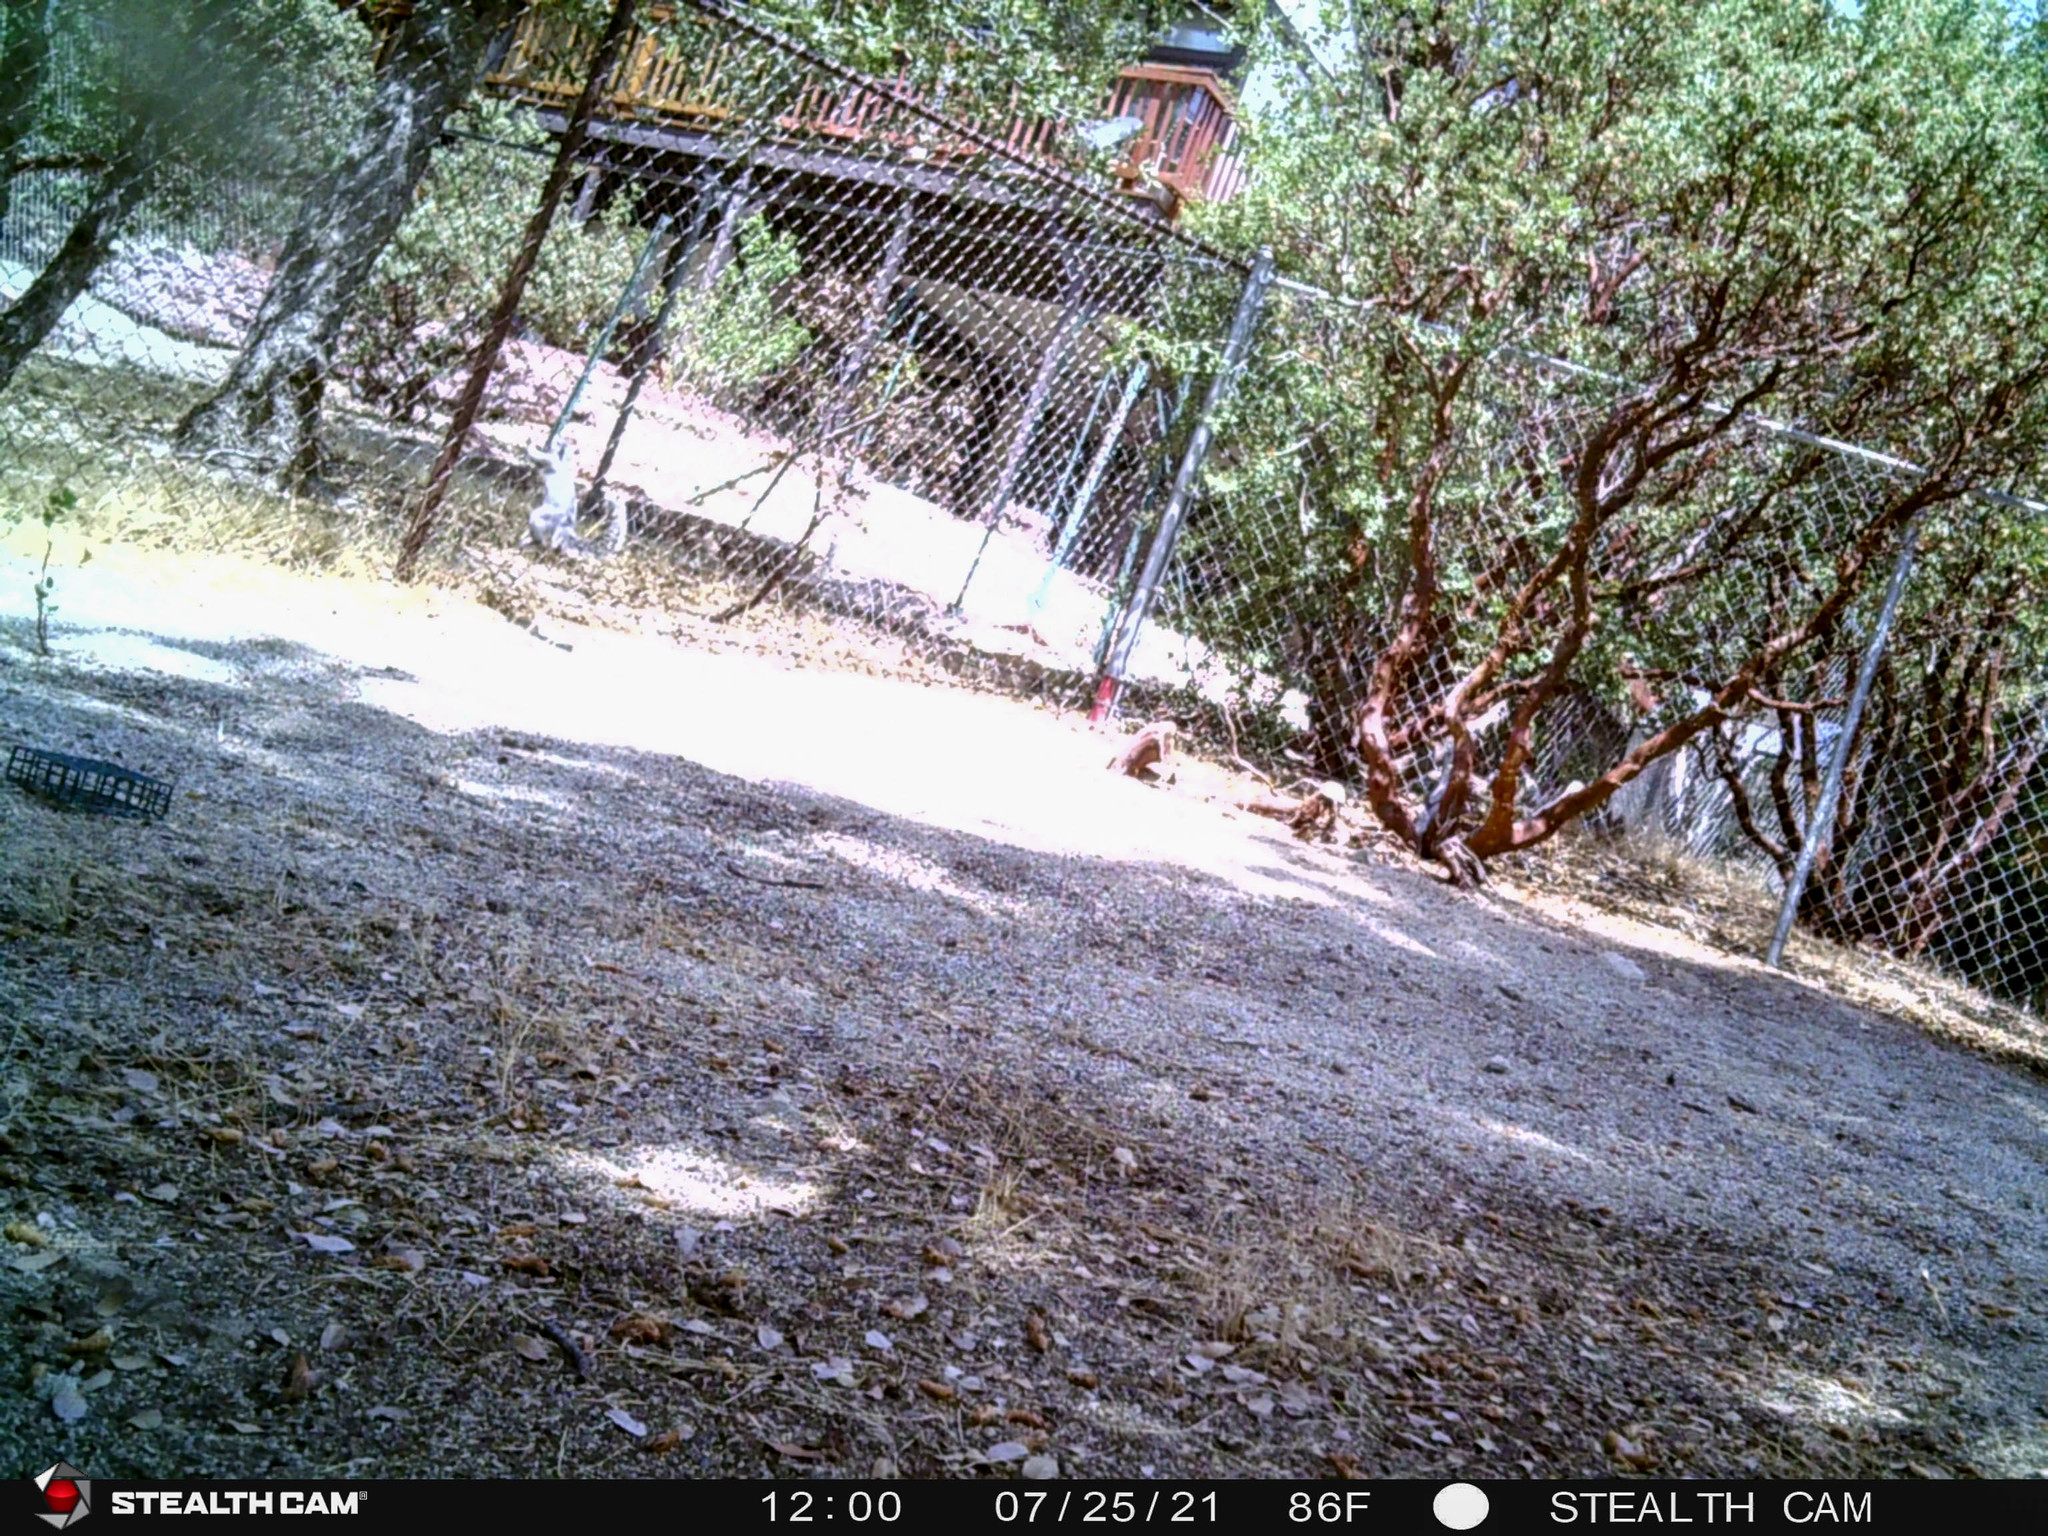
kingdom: Animalia
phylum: Chordata
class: Mammalia
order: Rodentia
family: Sciuridae
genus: Sciurus
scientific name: Sciurus griseus
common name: Western gray squirrel
